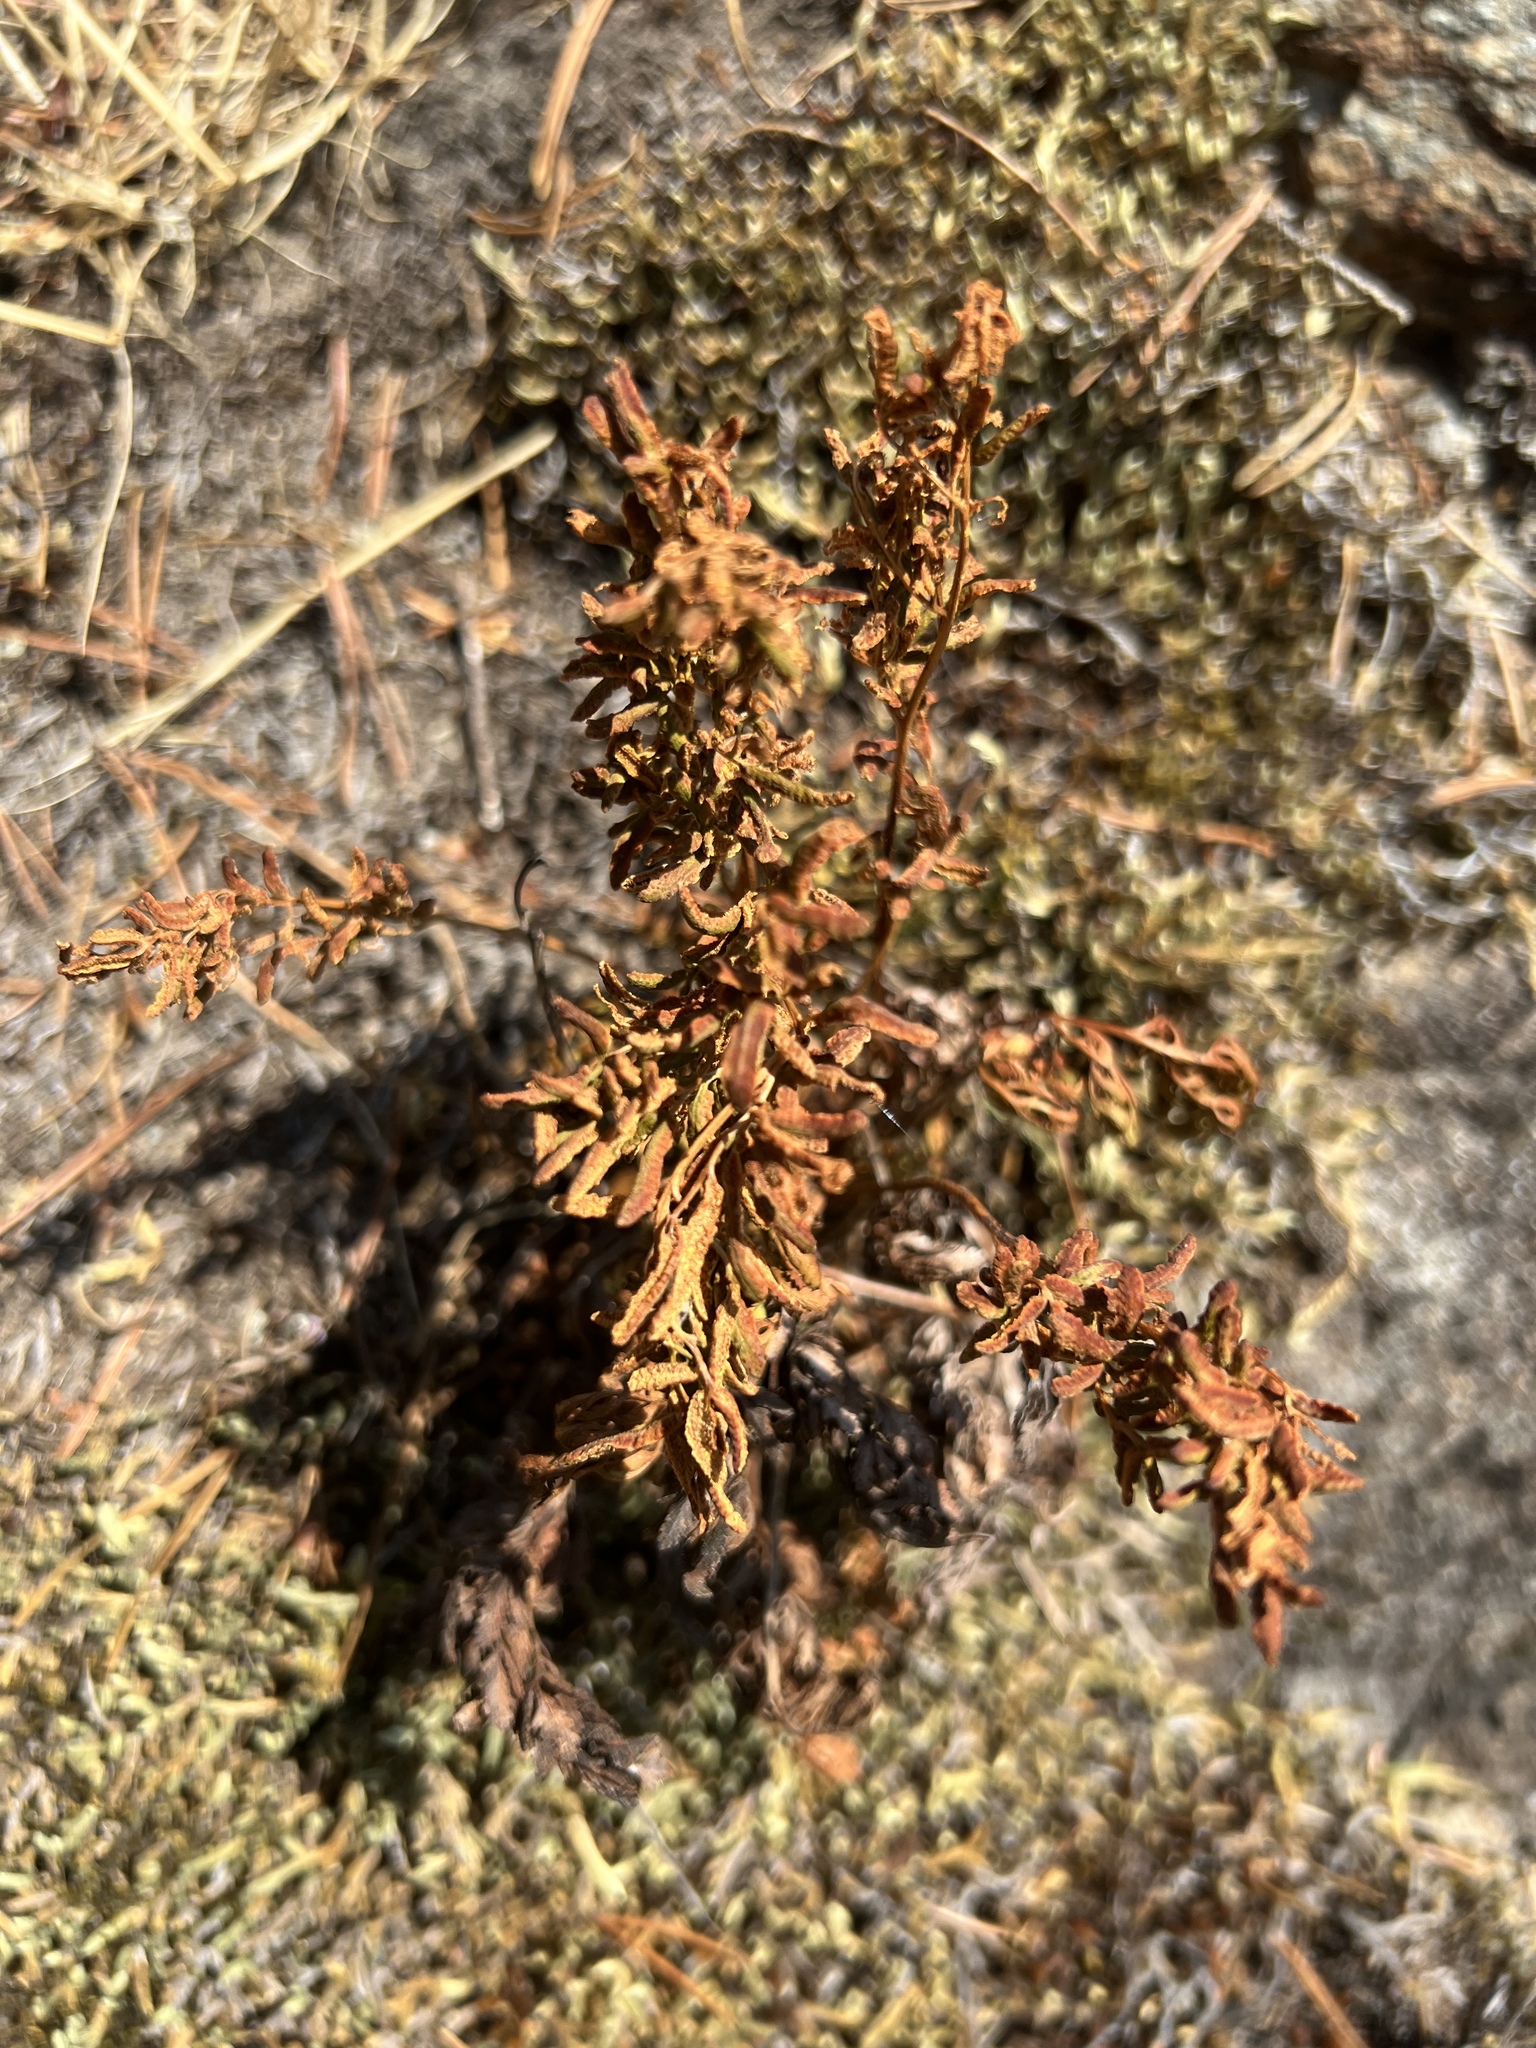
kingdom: Plantae
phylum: Tracheophyta
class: Polypodiopsida
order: Polypodiales
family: Pteridaceae
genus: Aspidotis
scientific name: Aspidotis densa
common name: Indian's dream
